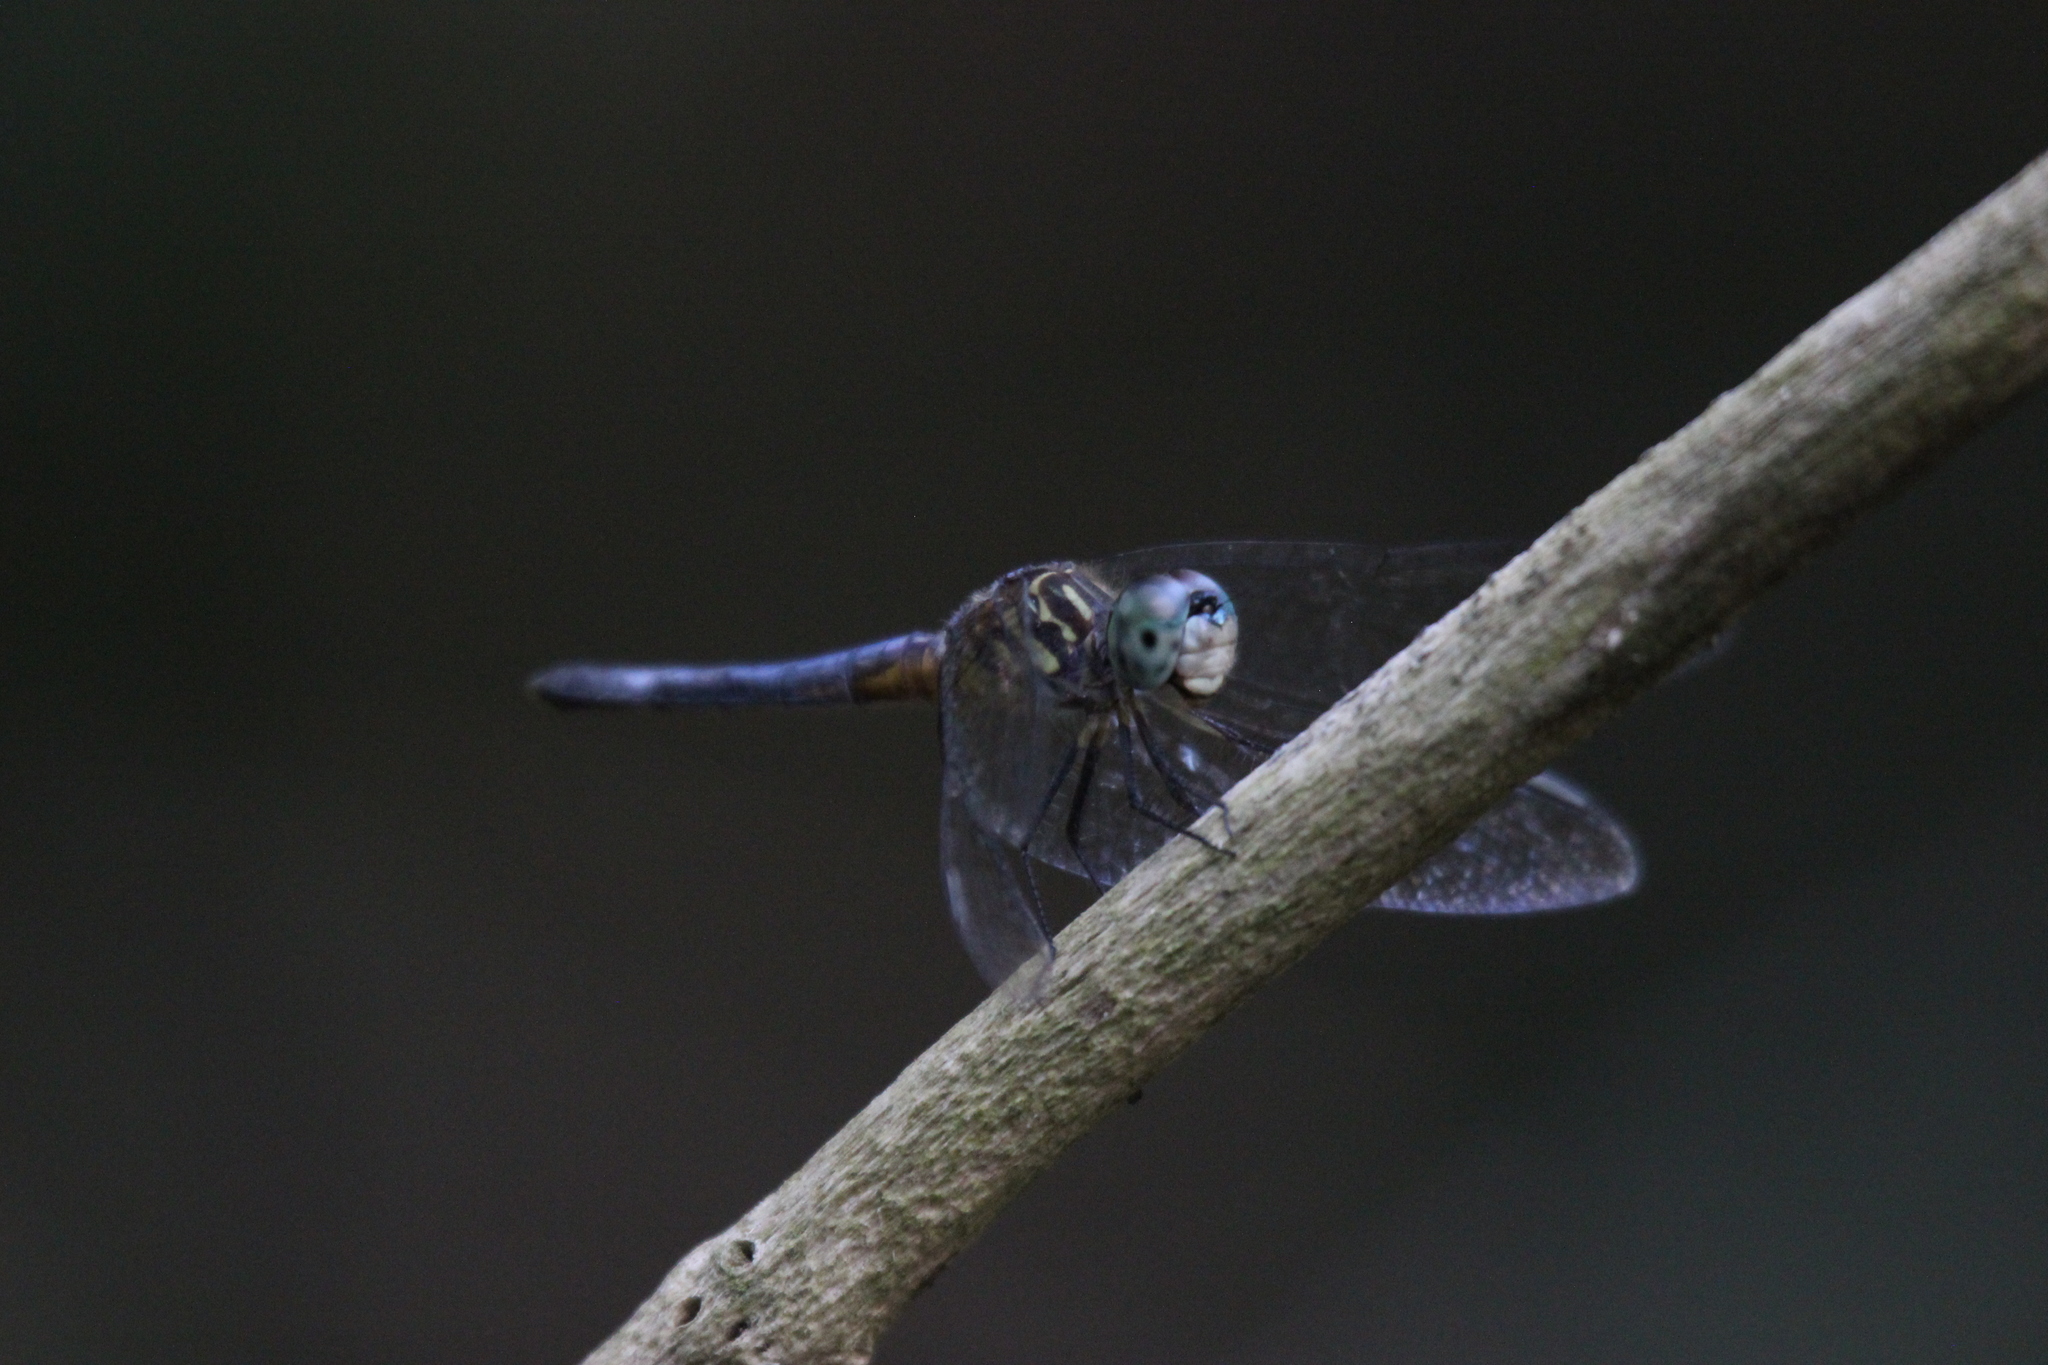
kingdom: Animalia
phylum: Arthropoda
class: Insecta
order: Odonata
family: Libellulidae
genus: Pachydiplax
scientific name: Pachydiplax longipennis
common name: Blue dasher
